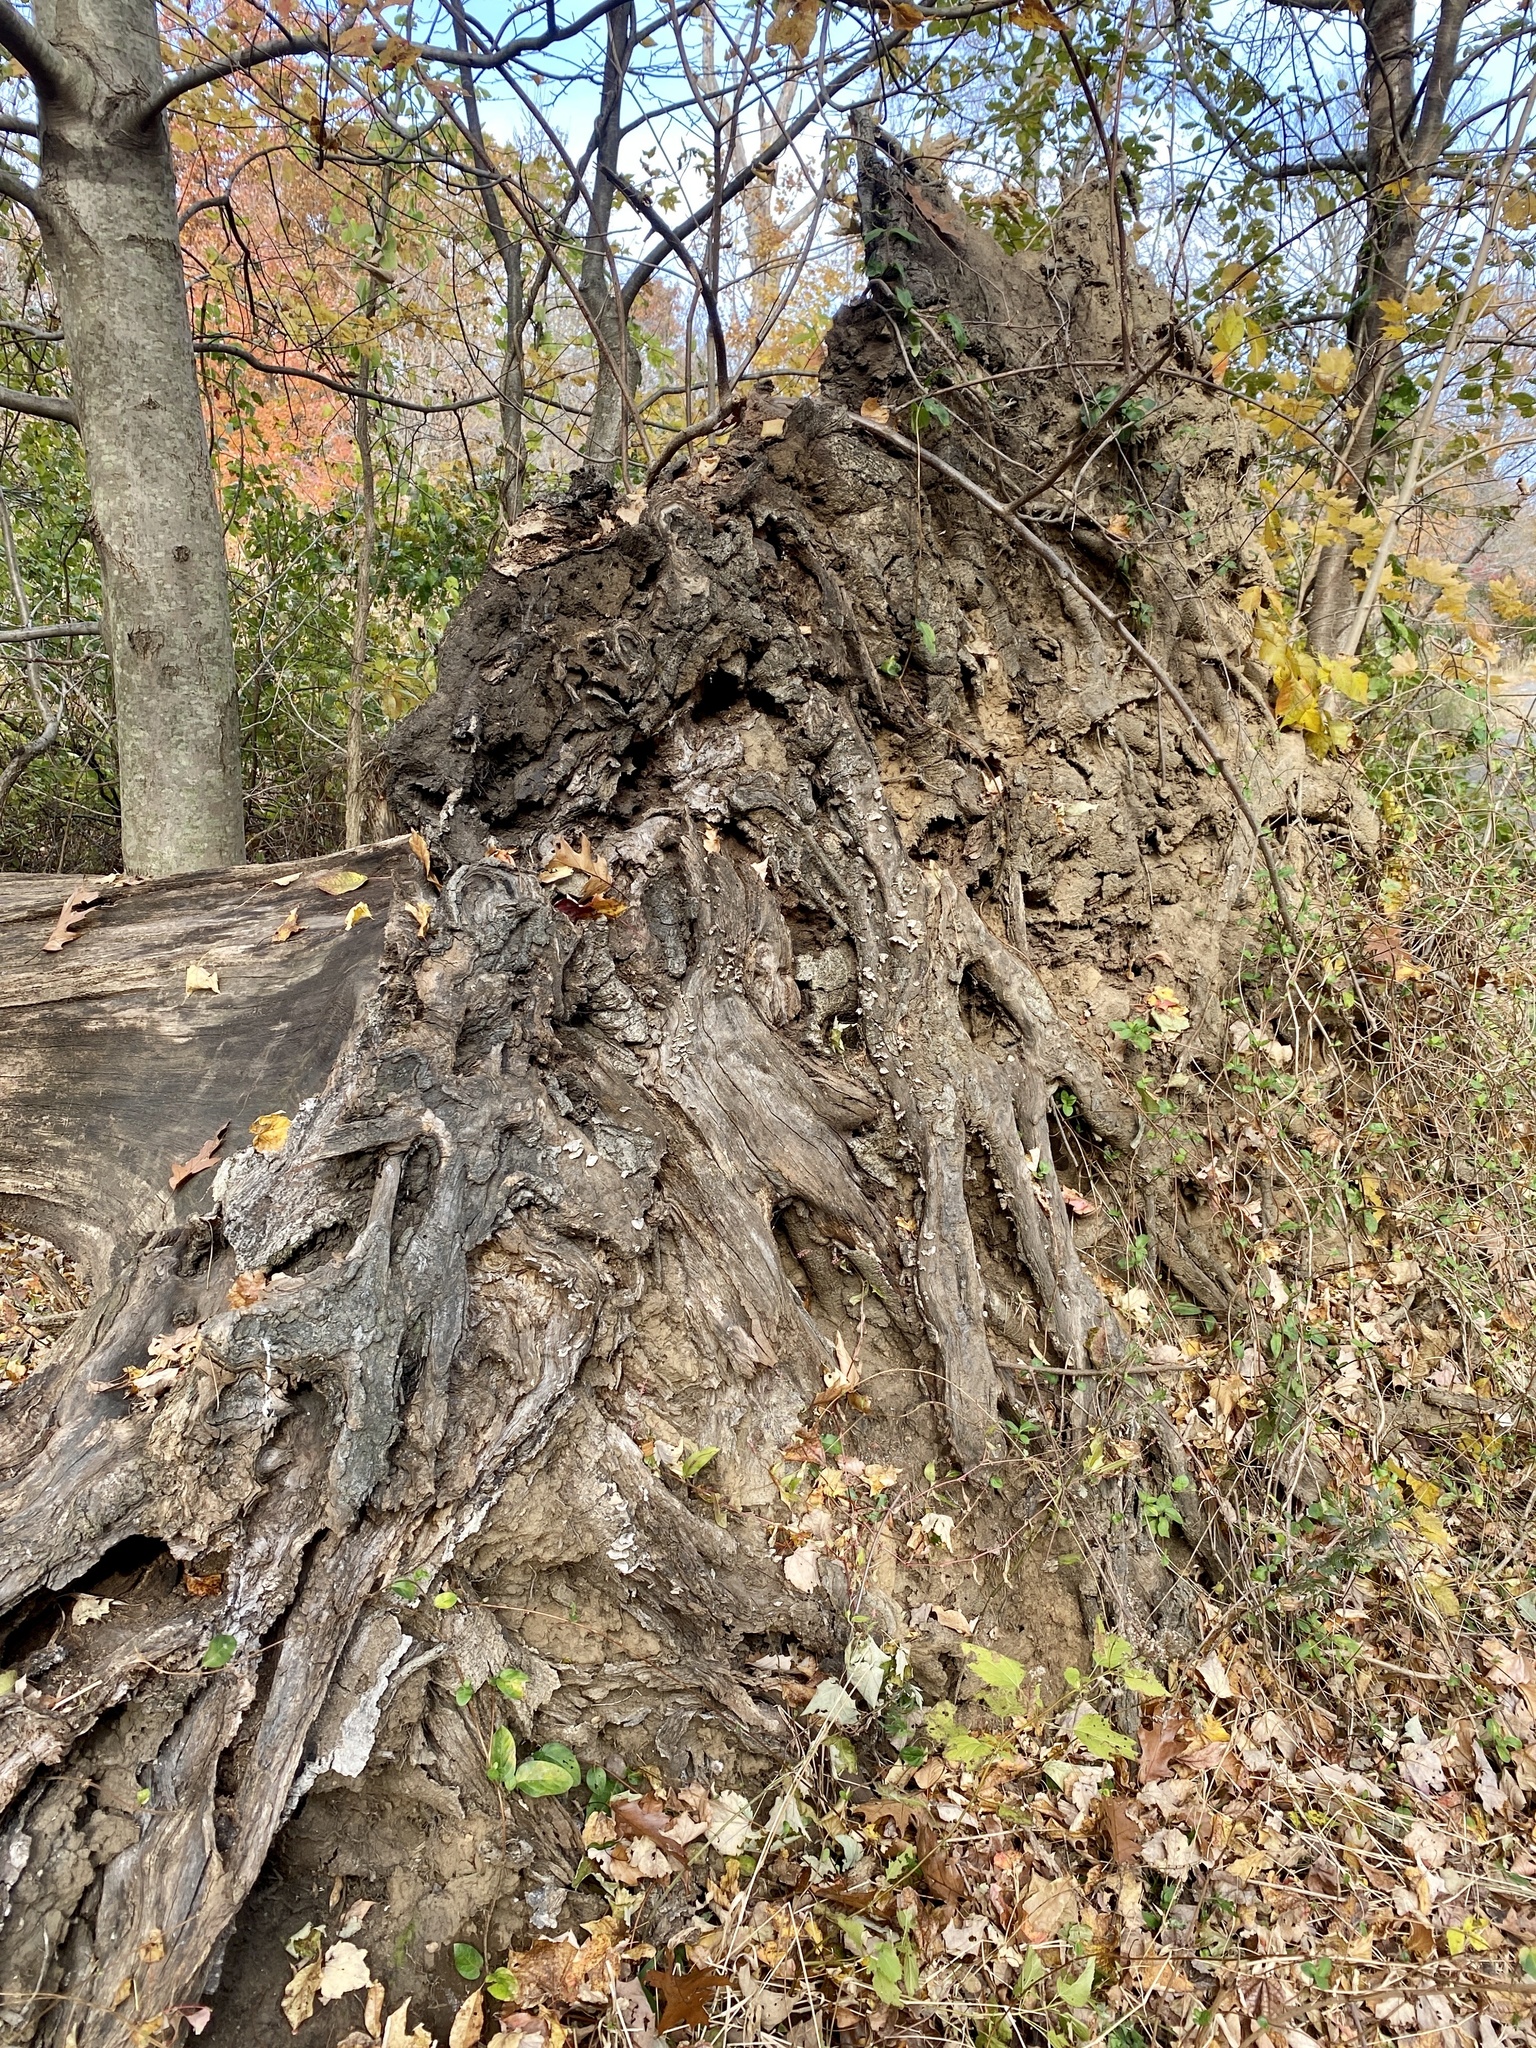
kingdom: Fungi
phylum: Basidiomycota
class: Agaricomycetes
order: Russulales
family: Stereaceae
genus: Stereum
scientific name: Stereum ostrea
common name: False turkeytail
